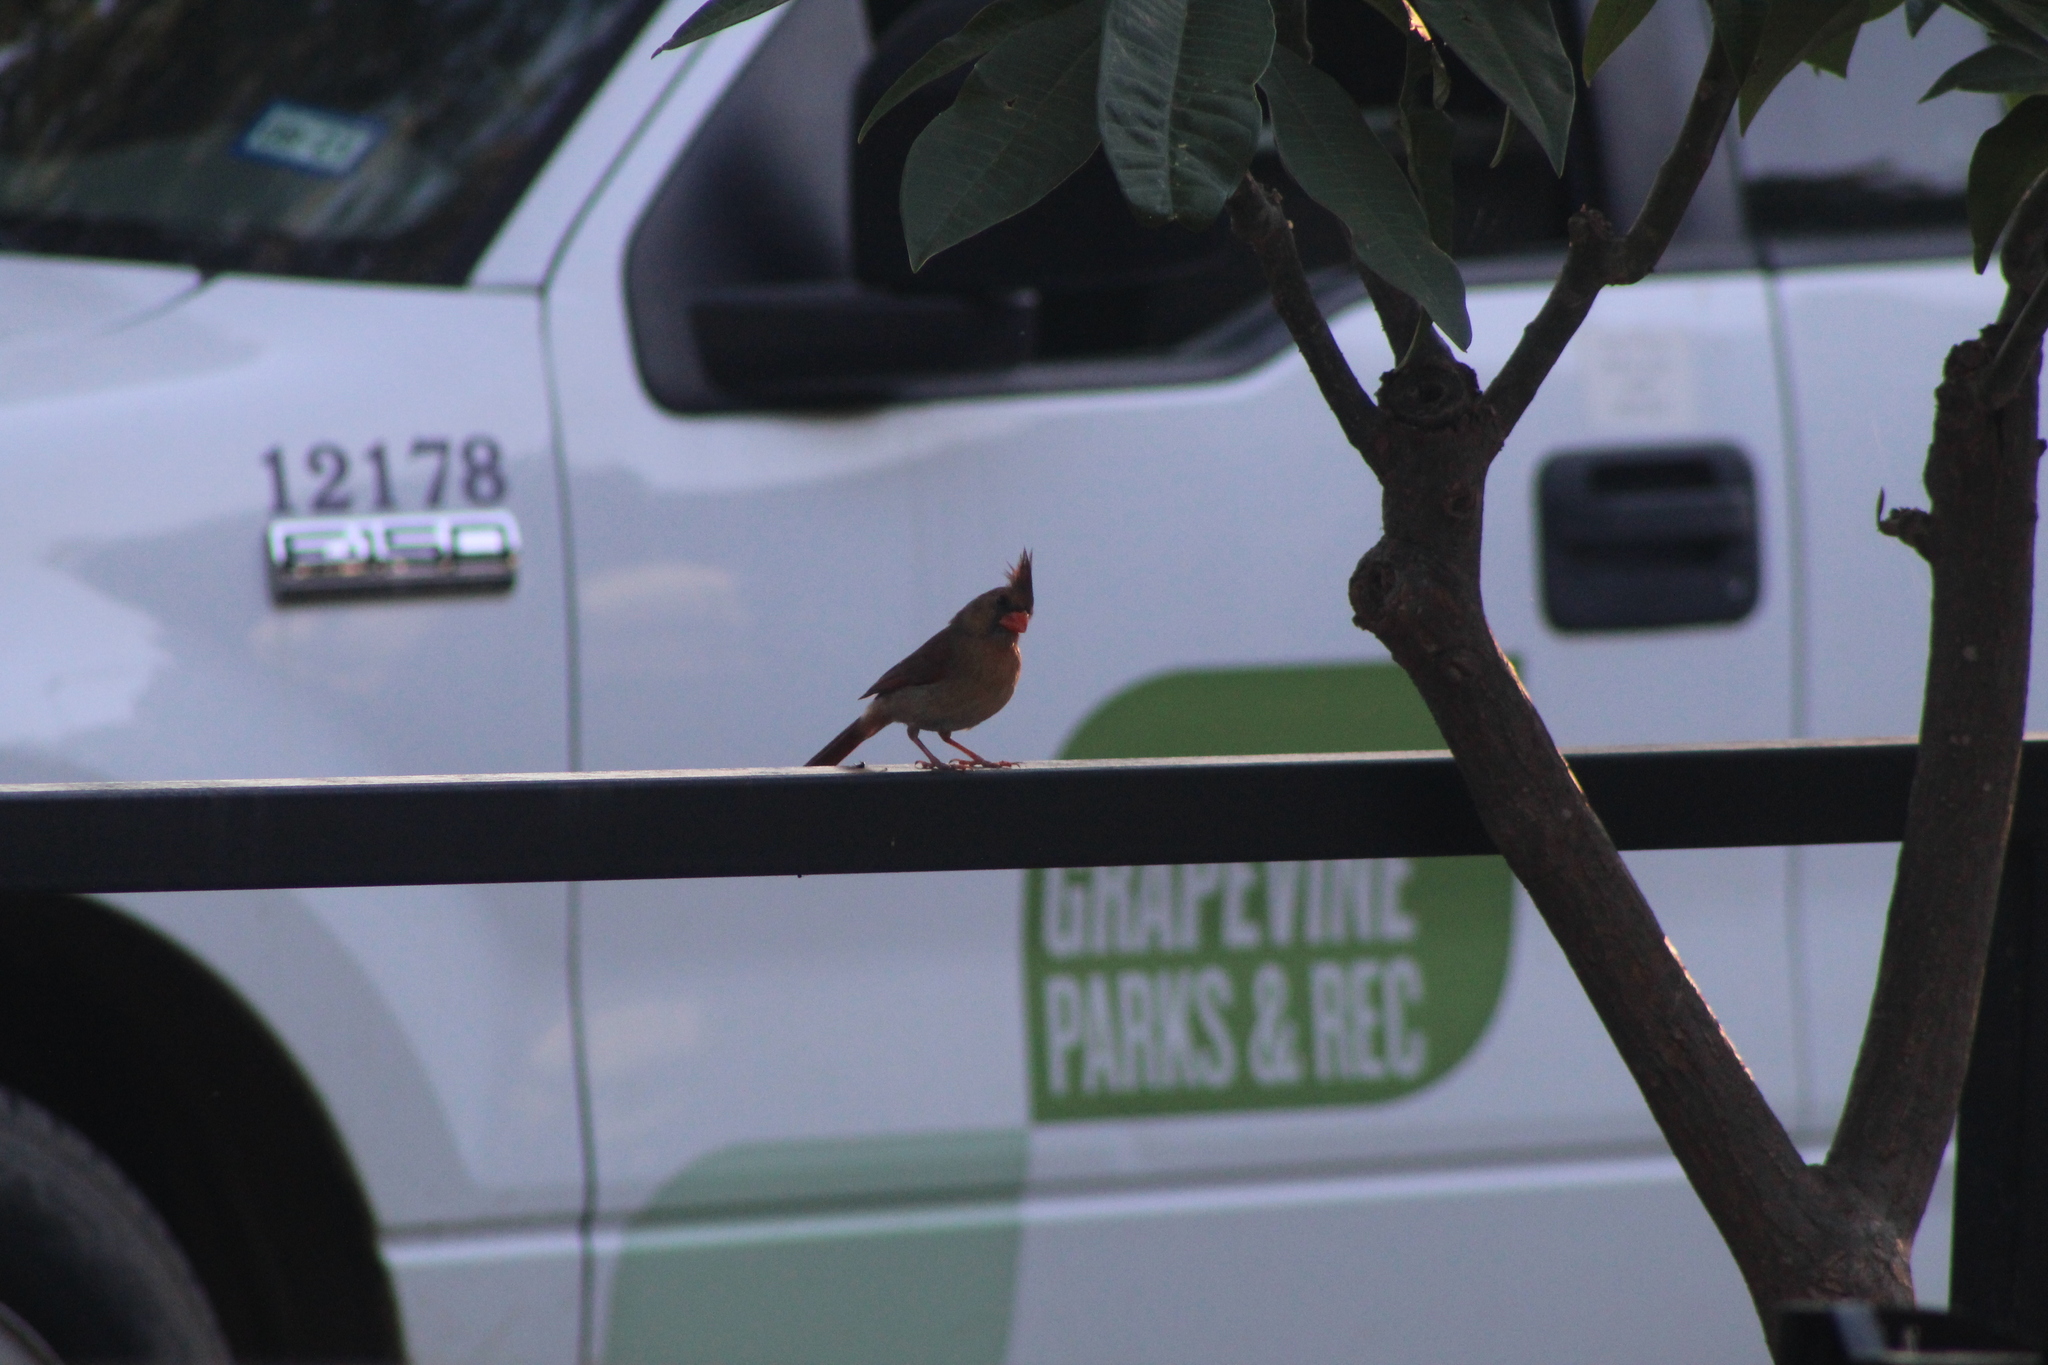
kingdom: Animalia
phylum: Chordata
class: Aves
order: Passeriformes
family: Cardinalidae
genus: Cardinalis
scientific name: Cardinalis cardinalis
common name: Northern cardinal
